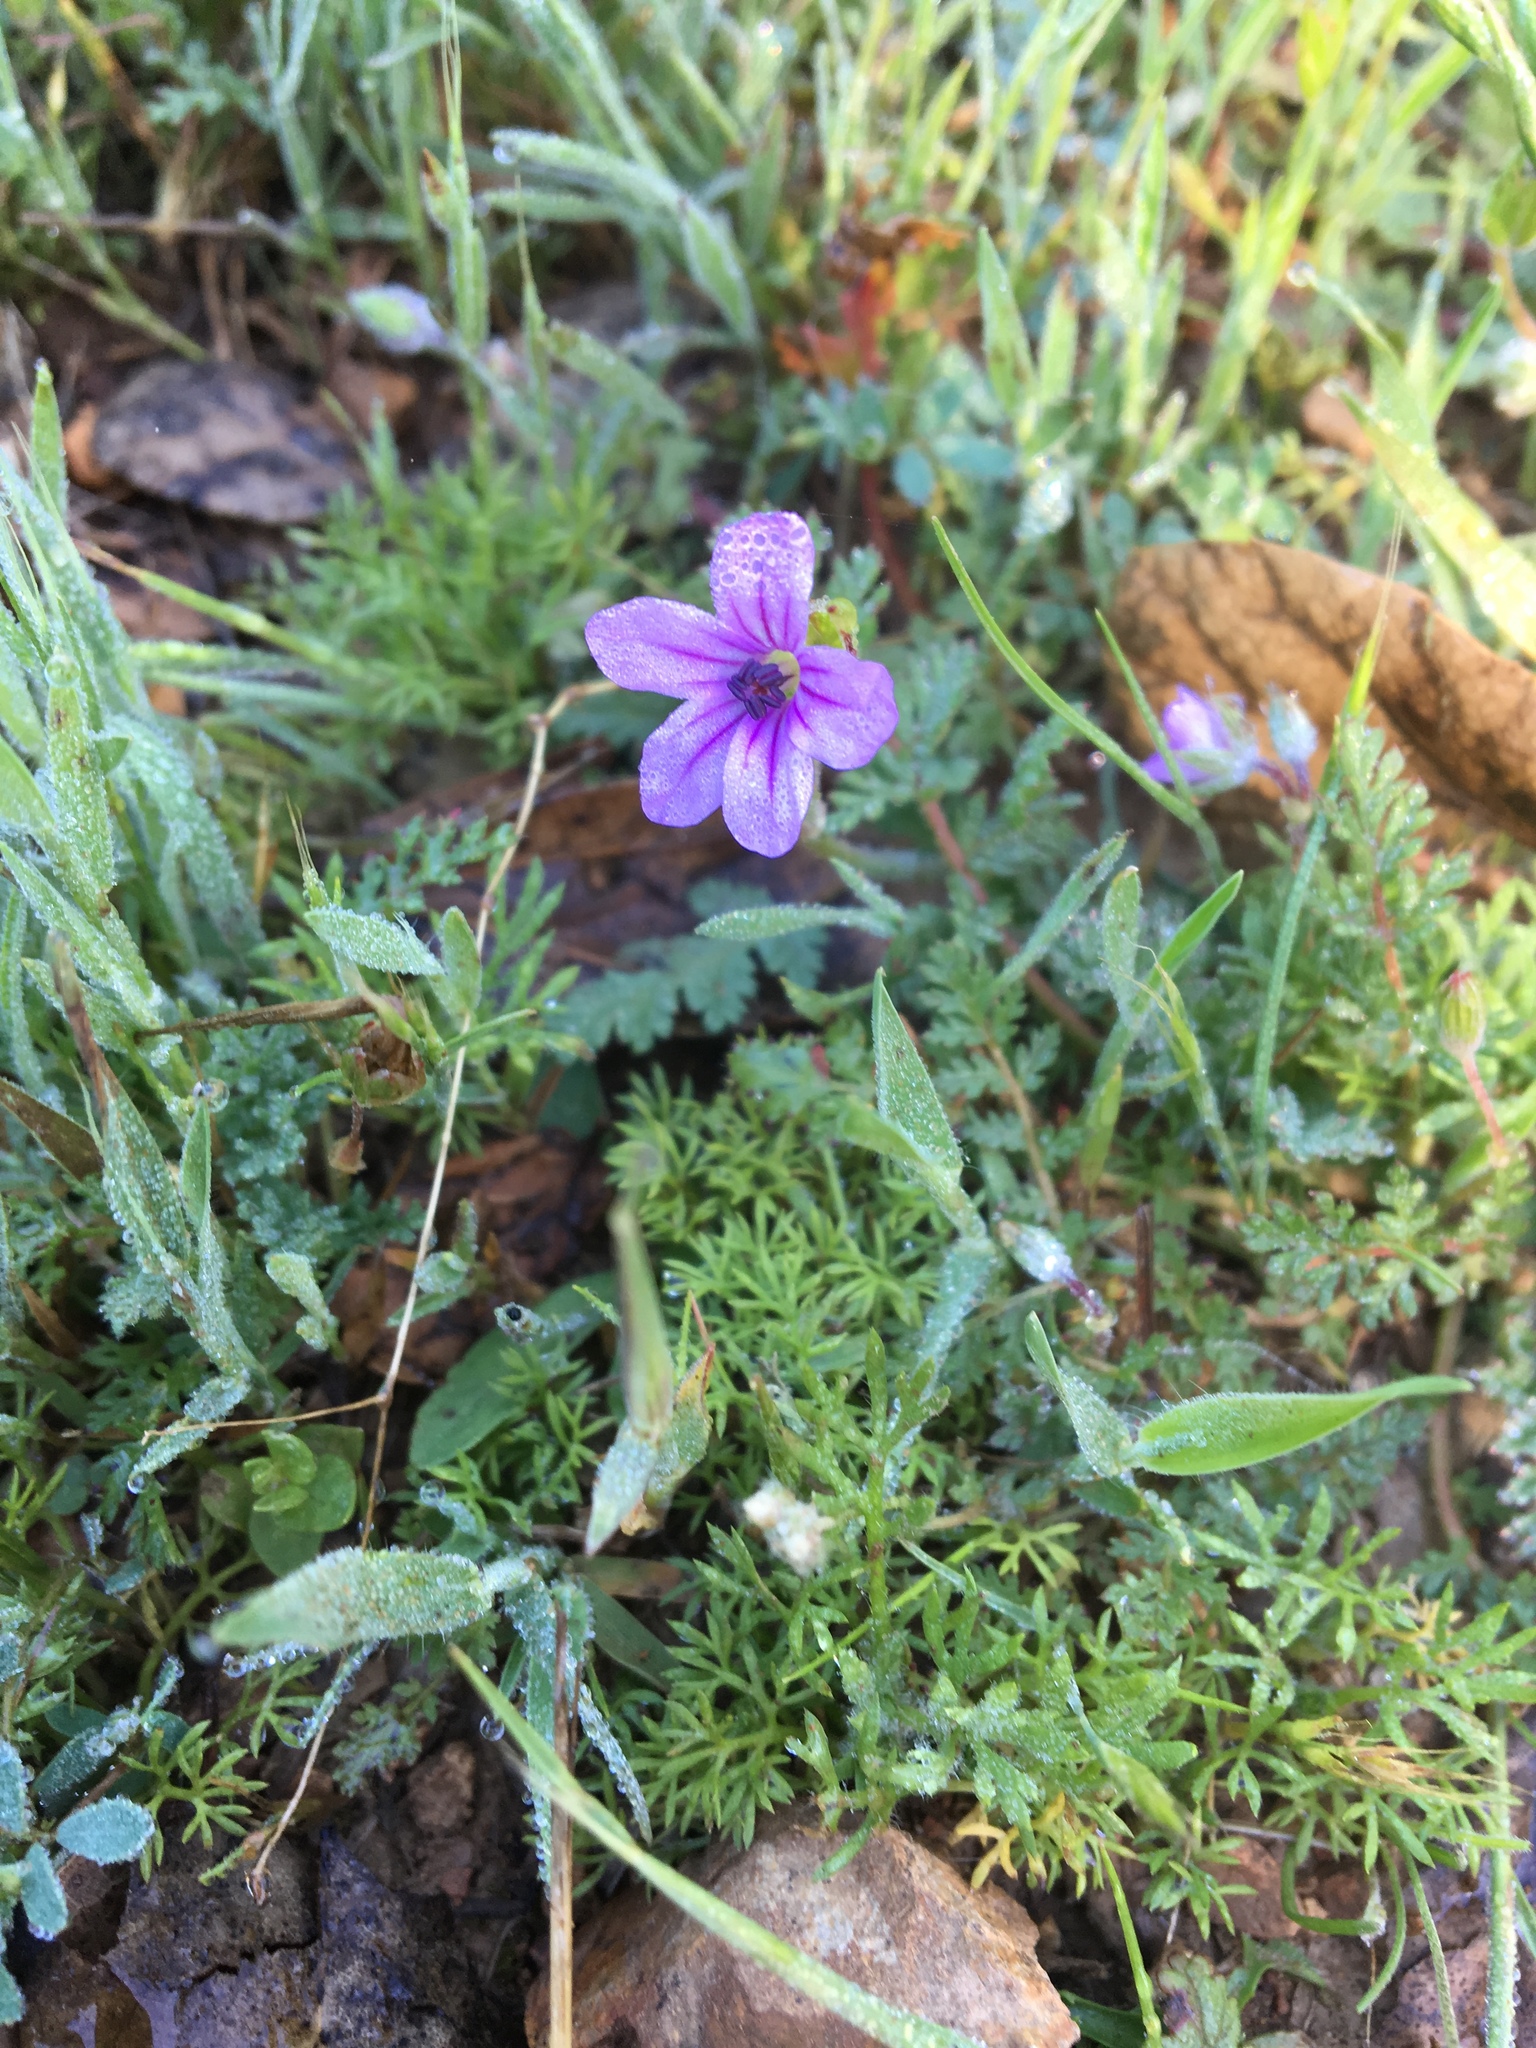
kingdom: Plantae
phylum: Tracheophyta
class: Magnoliopsida
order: Geraniales
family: Geraniaceae
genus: Erodium
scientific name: Erodium botrys
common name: Mediterranean stork's-bill
